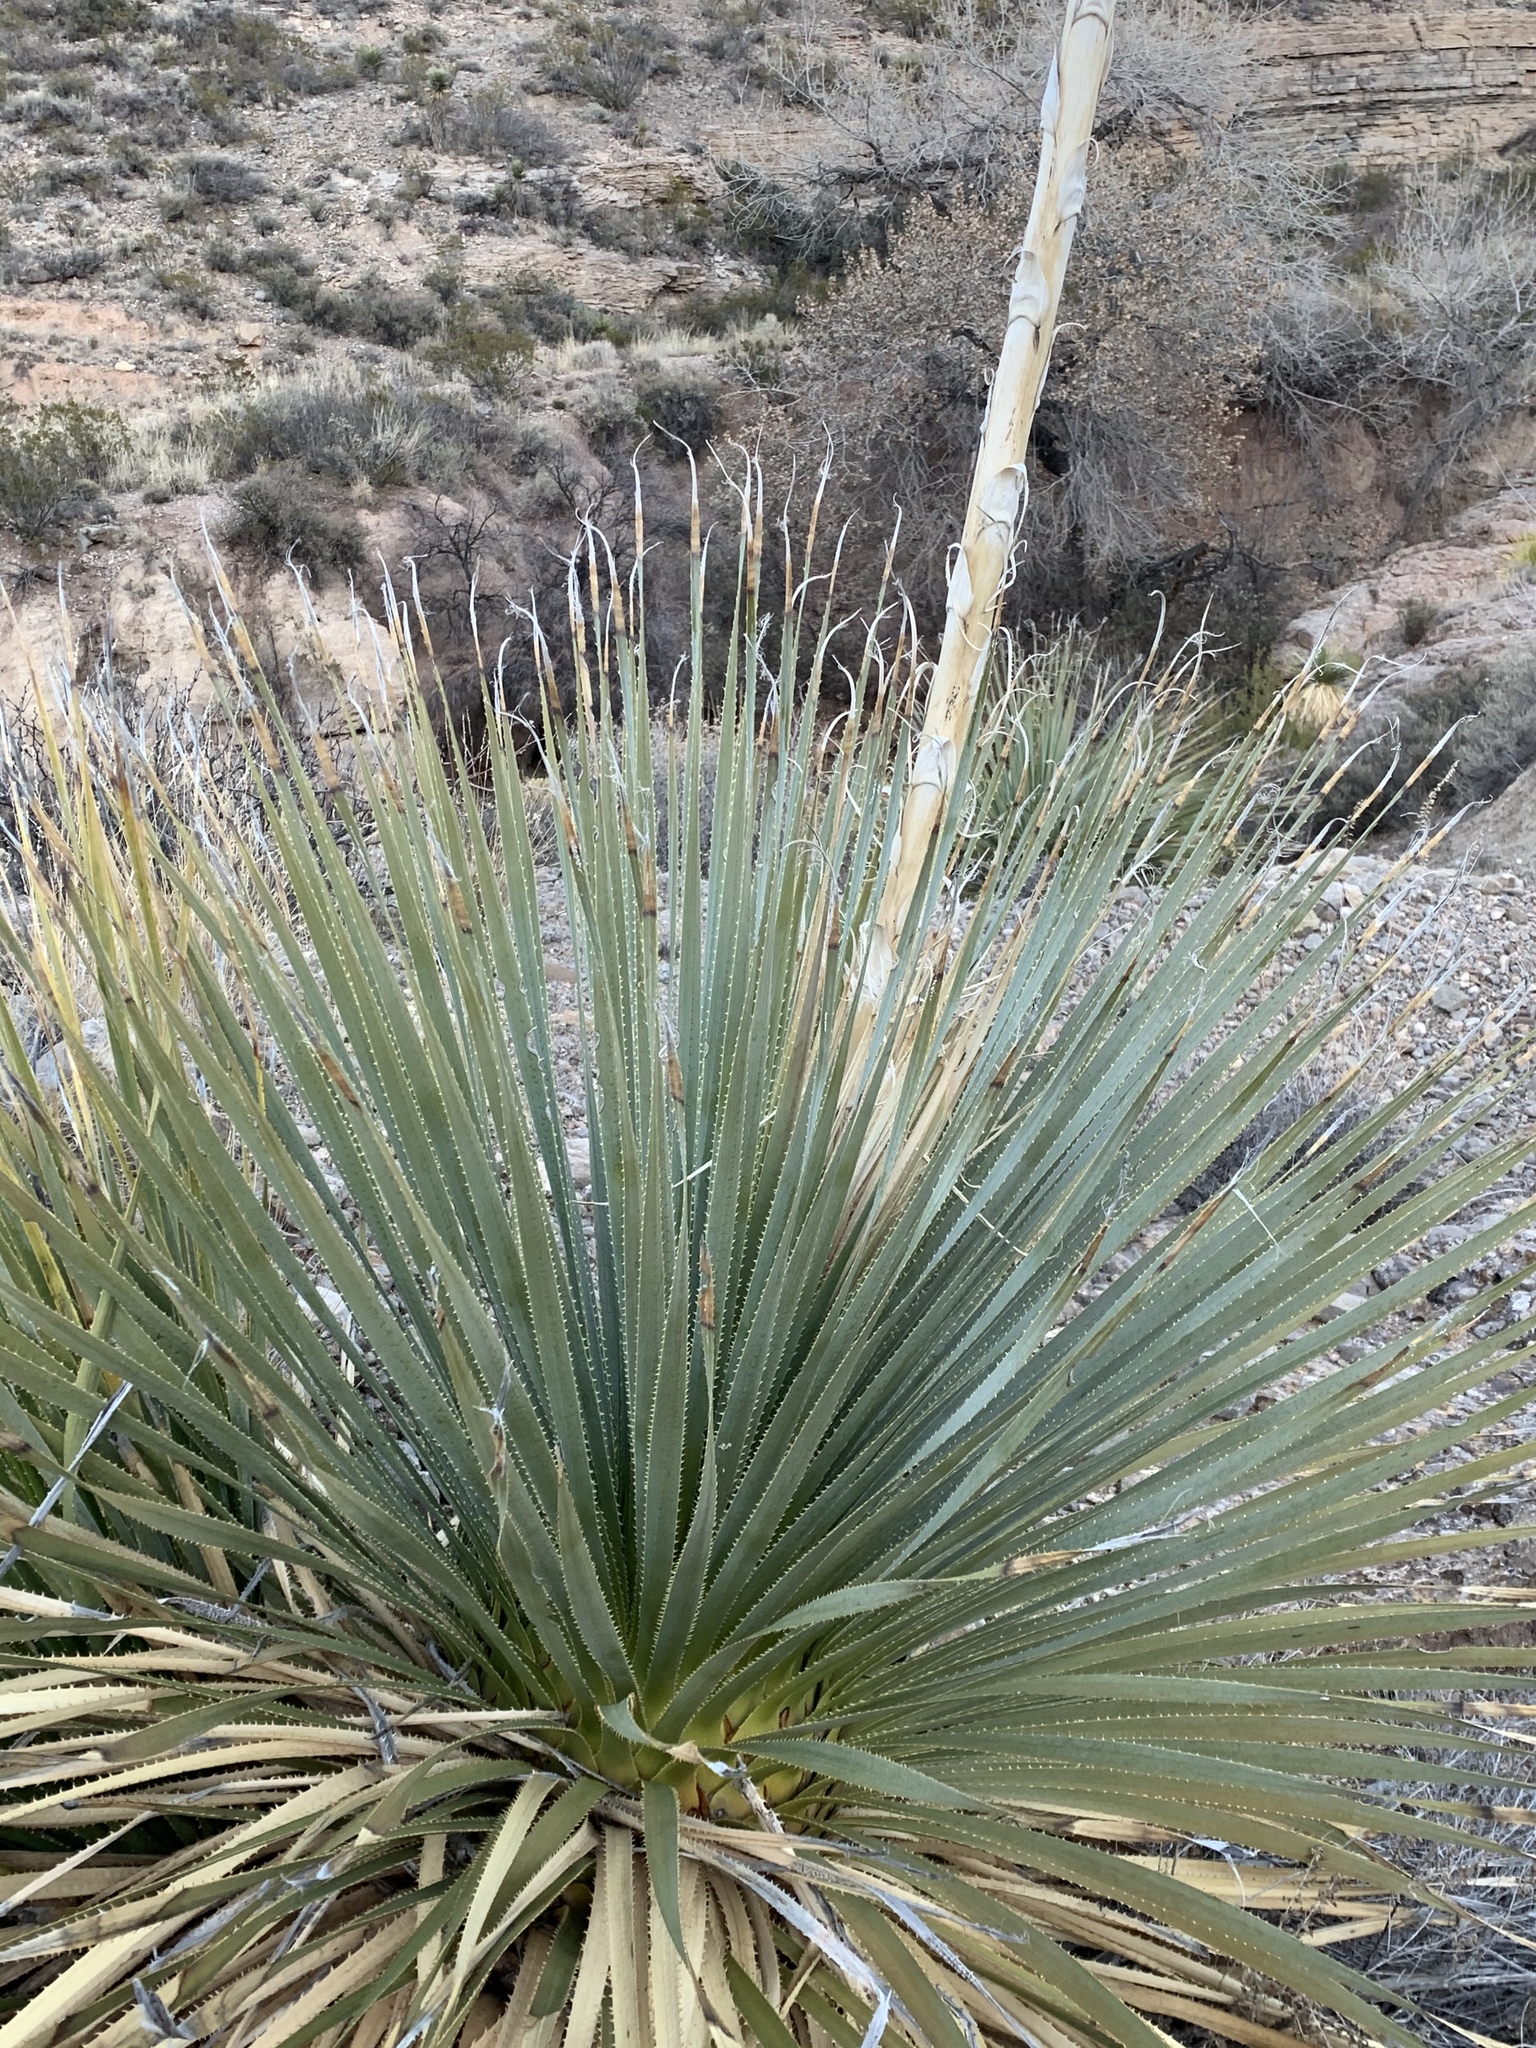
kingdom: Plantae
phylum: Tracheophyta
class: Liliopsida
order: Asparagales
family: Asparagaceae
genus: Dasylirion
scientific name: Dasylirion wheeleri
